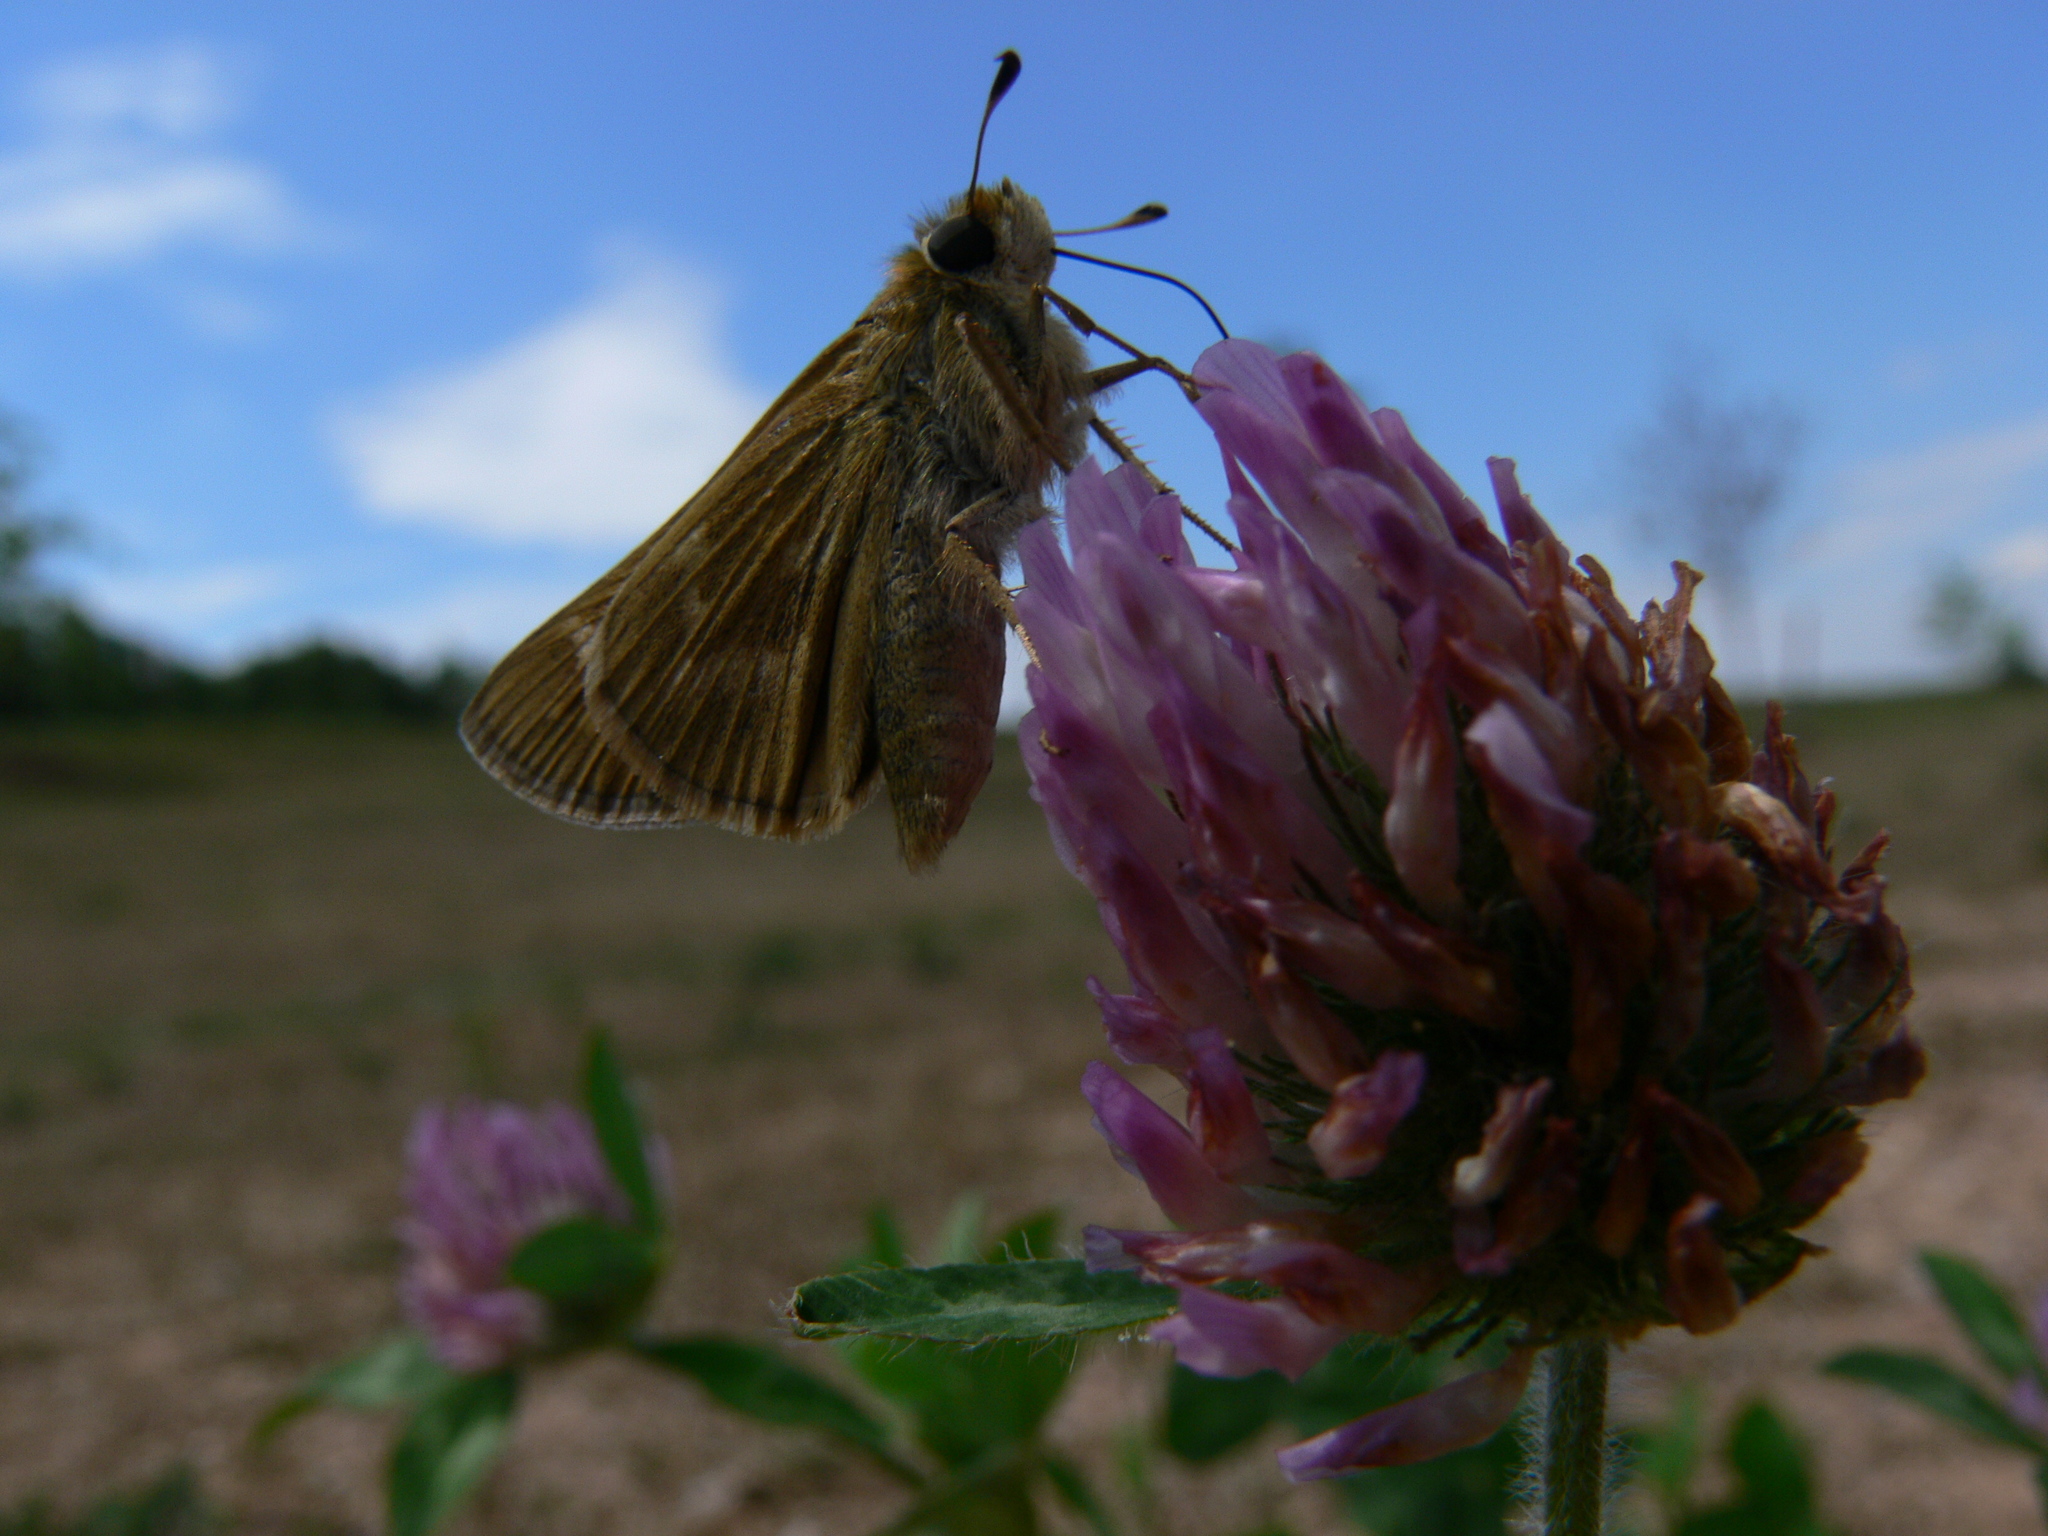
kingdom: Animalia
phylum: Arthropoda
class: Insecta
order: Lepidoptera
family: Hesperiidae
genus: Atalopedes
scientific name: Atalopedes
